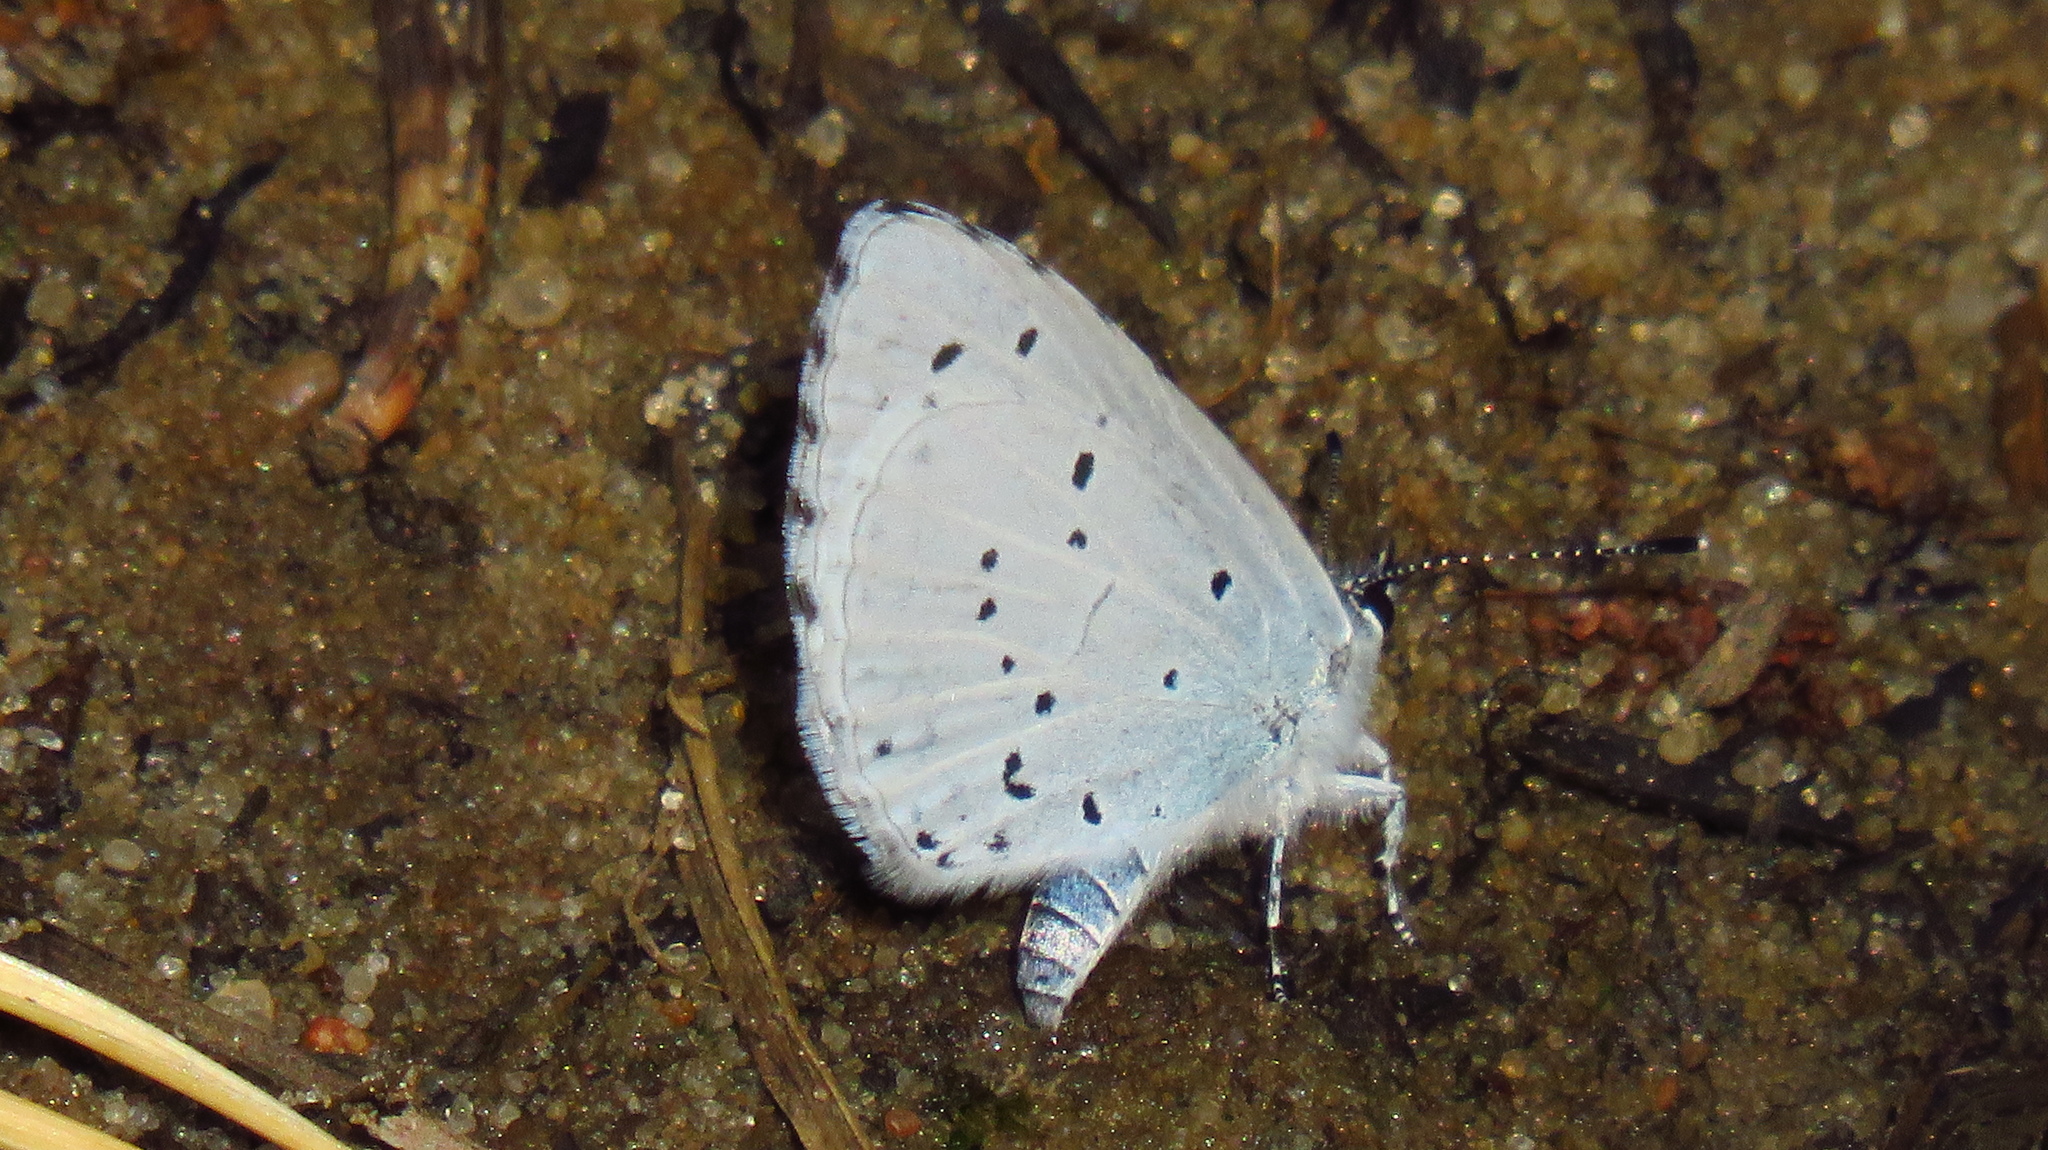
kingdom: Animalia
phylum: Arthropoda
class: Insecta
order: Lepidoptera
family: Lycaenidae
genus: Celastrina
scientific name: Celastrina argiolus
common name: Holly blue
